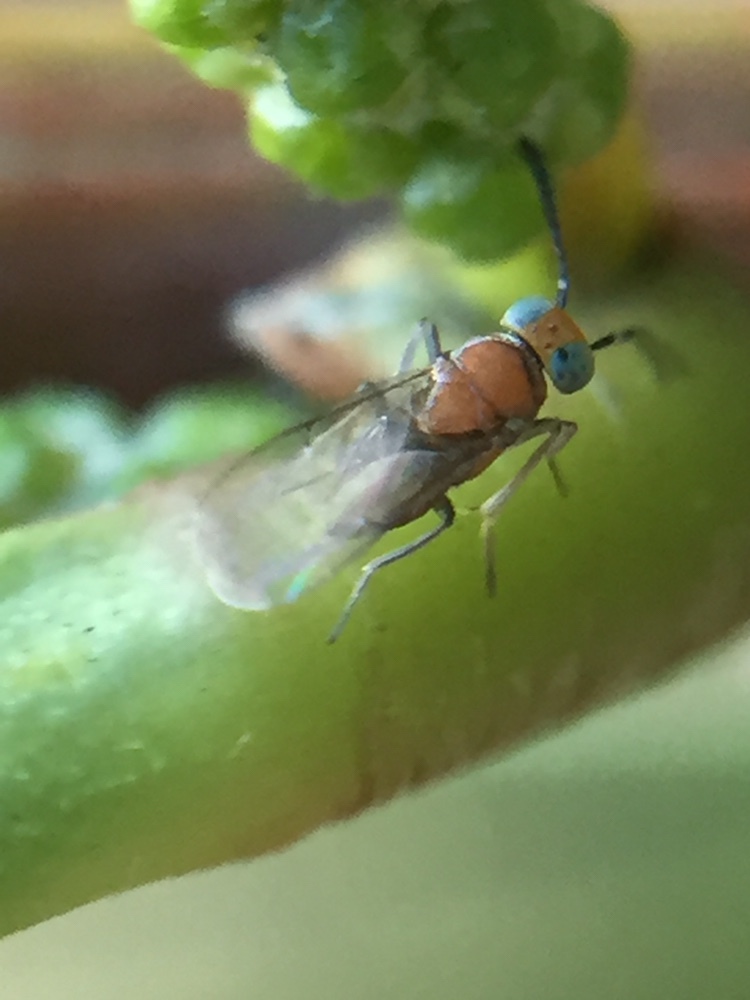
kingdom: Animalia
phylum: Arthropoda
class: Insecta
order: Hymenoptera
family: Encyrtidae
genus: Anagyrus
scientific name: Anagyrus fusciventris
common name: Encyrtid parasitoid wasp
